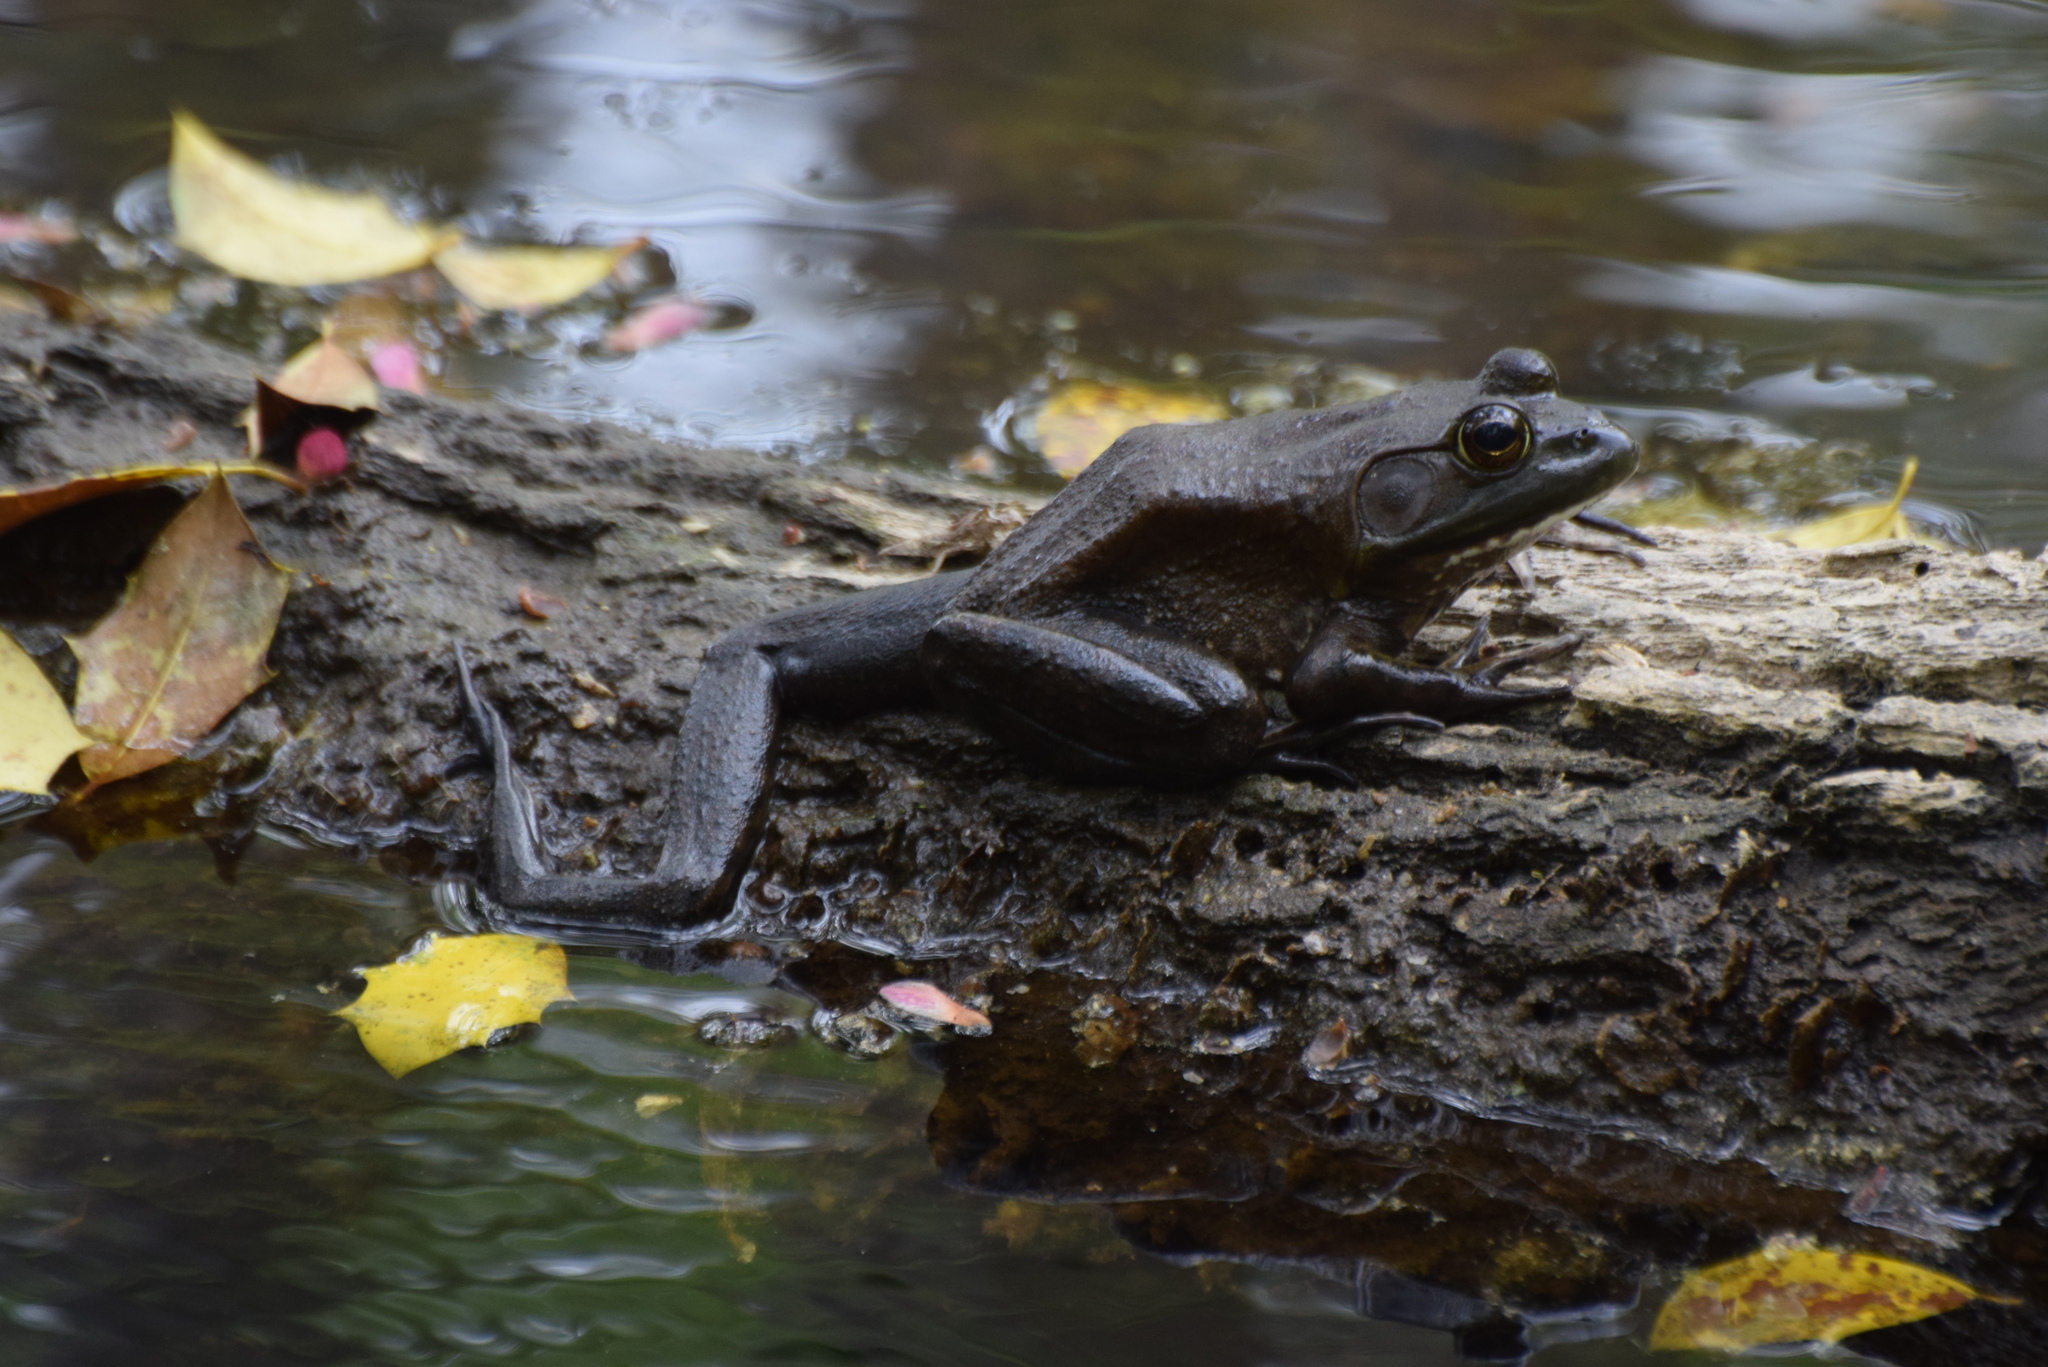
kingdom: Animalia
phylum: Chordata
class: Amphibia
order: Anura
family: Ranidae
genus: Lithobates
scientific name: Lithobates catesbeianus
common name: American bullfrog
